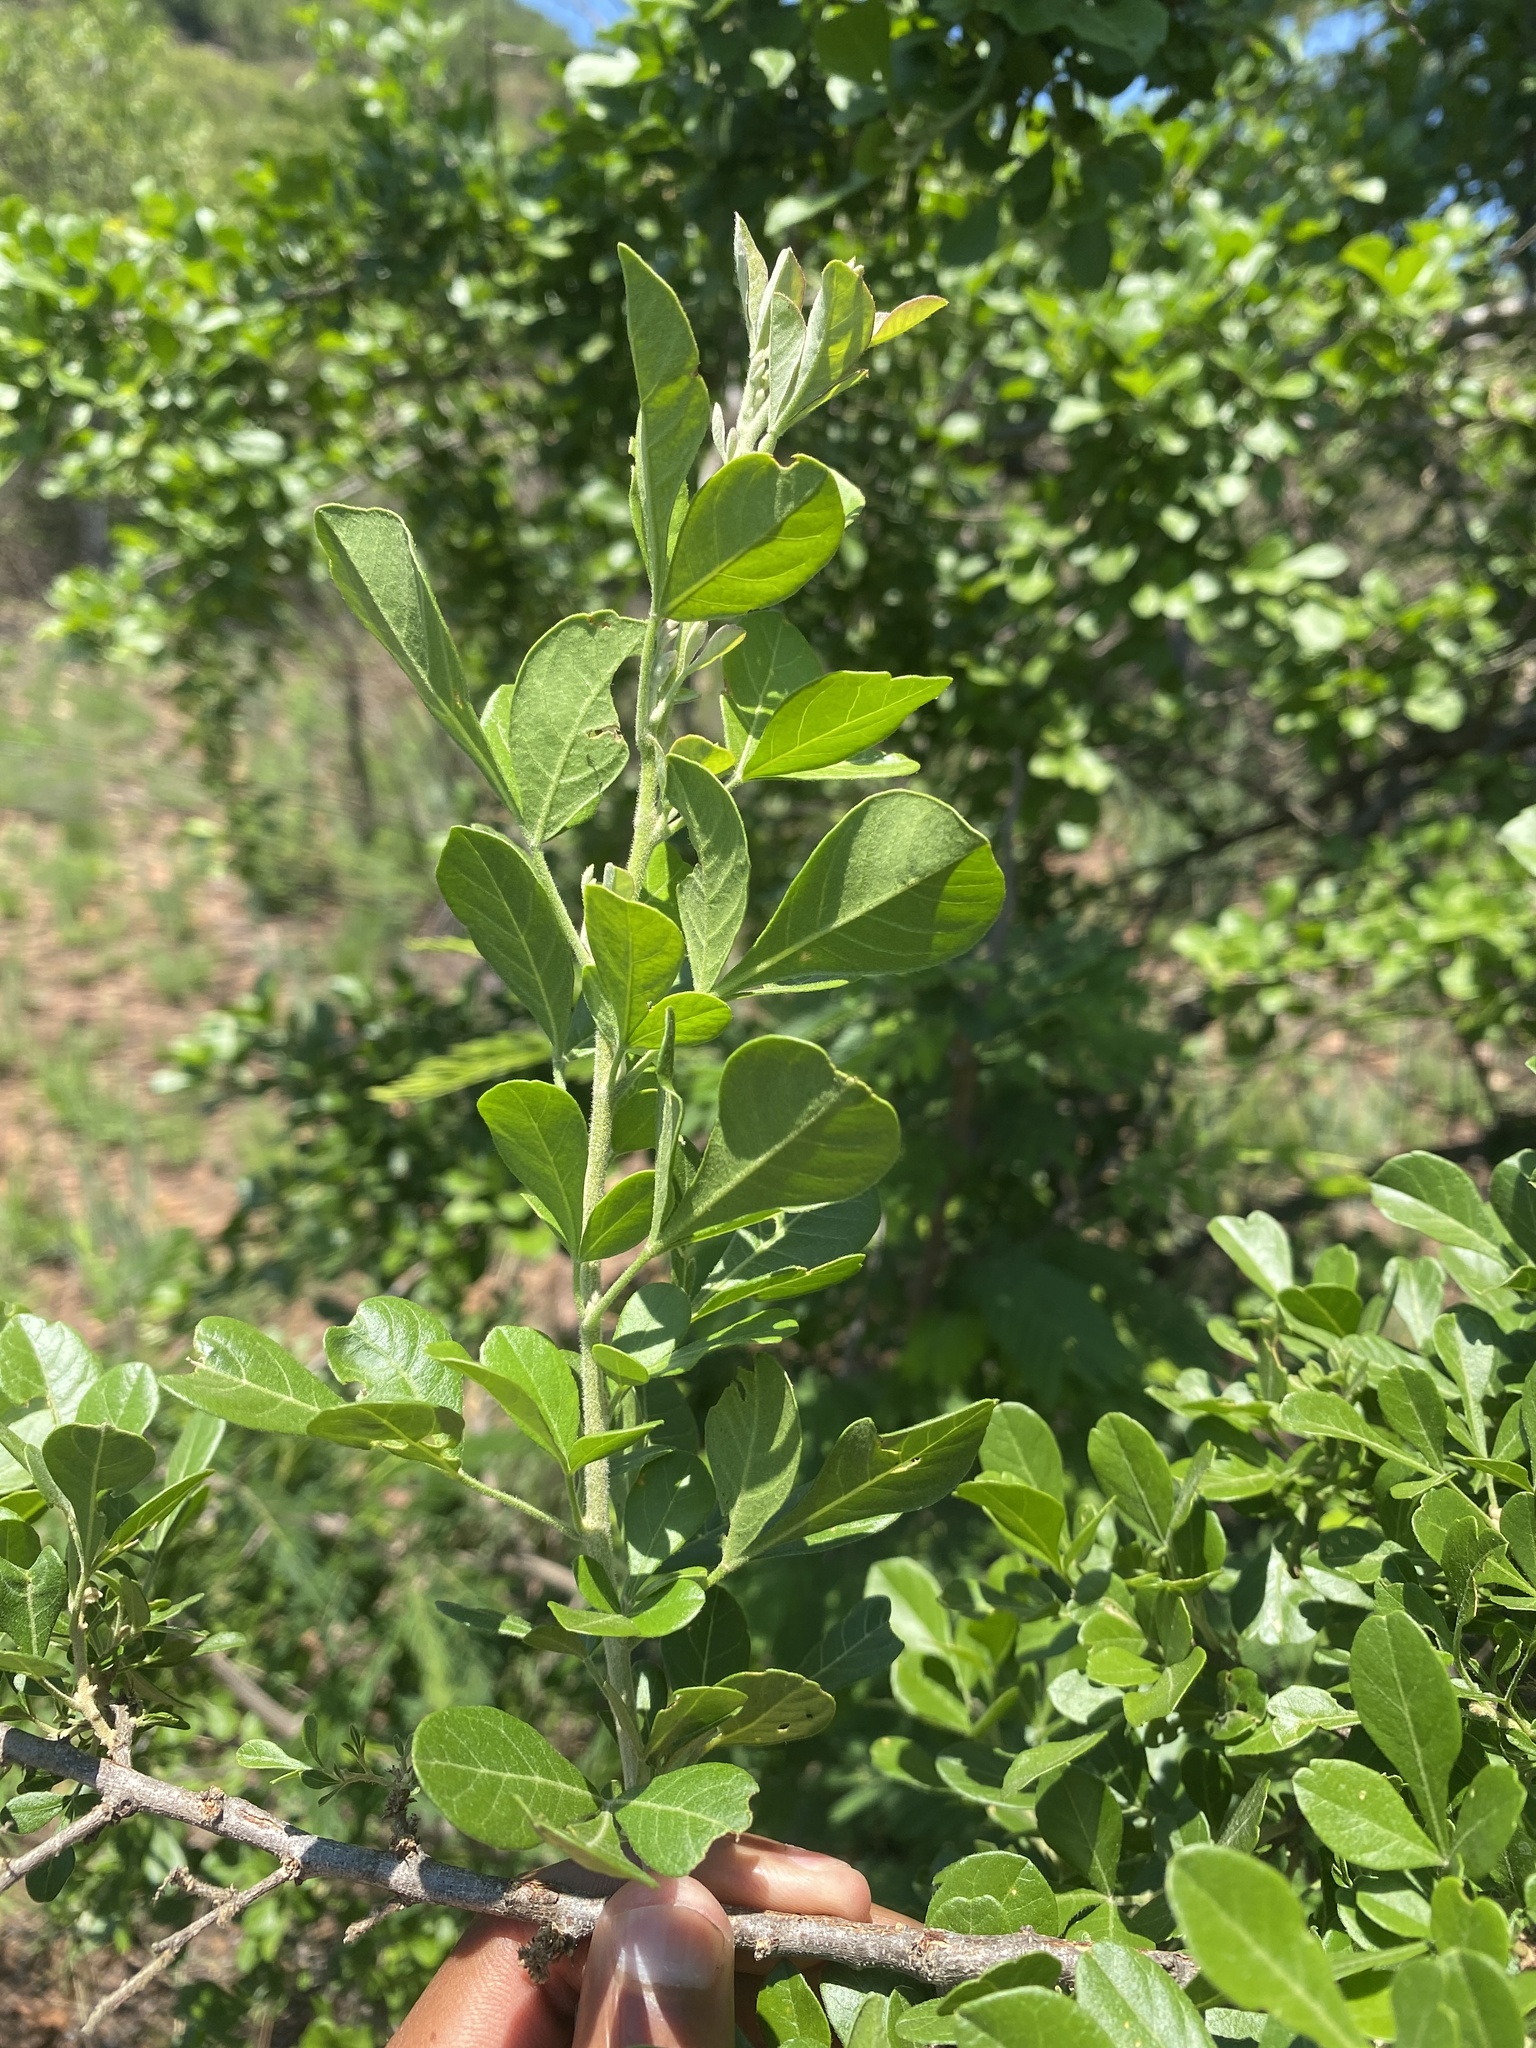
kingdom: Plantae
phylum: Tracheophyta
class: Magnoliopsida
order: Sapindales
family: Anacardiaceae
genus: Searsia
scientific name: Searsia pentheri
